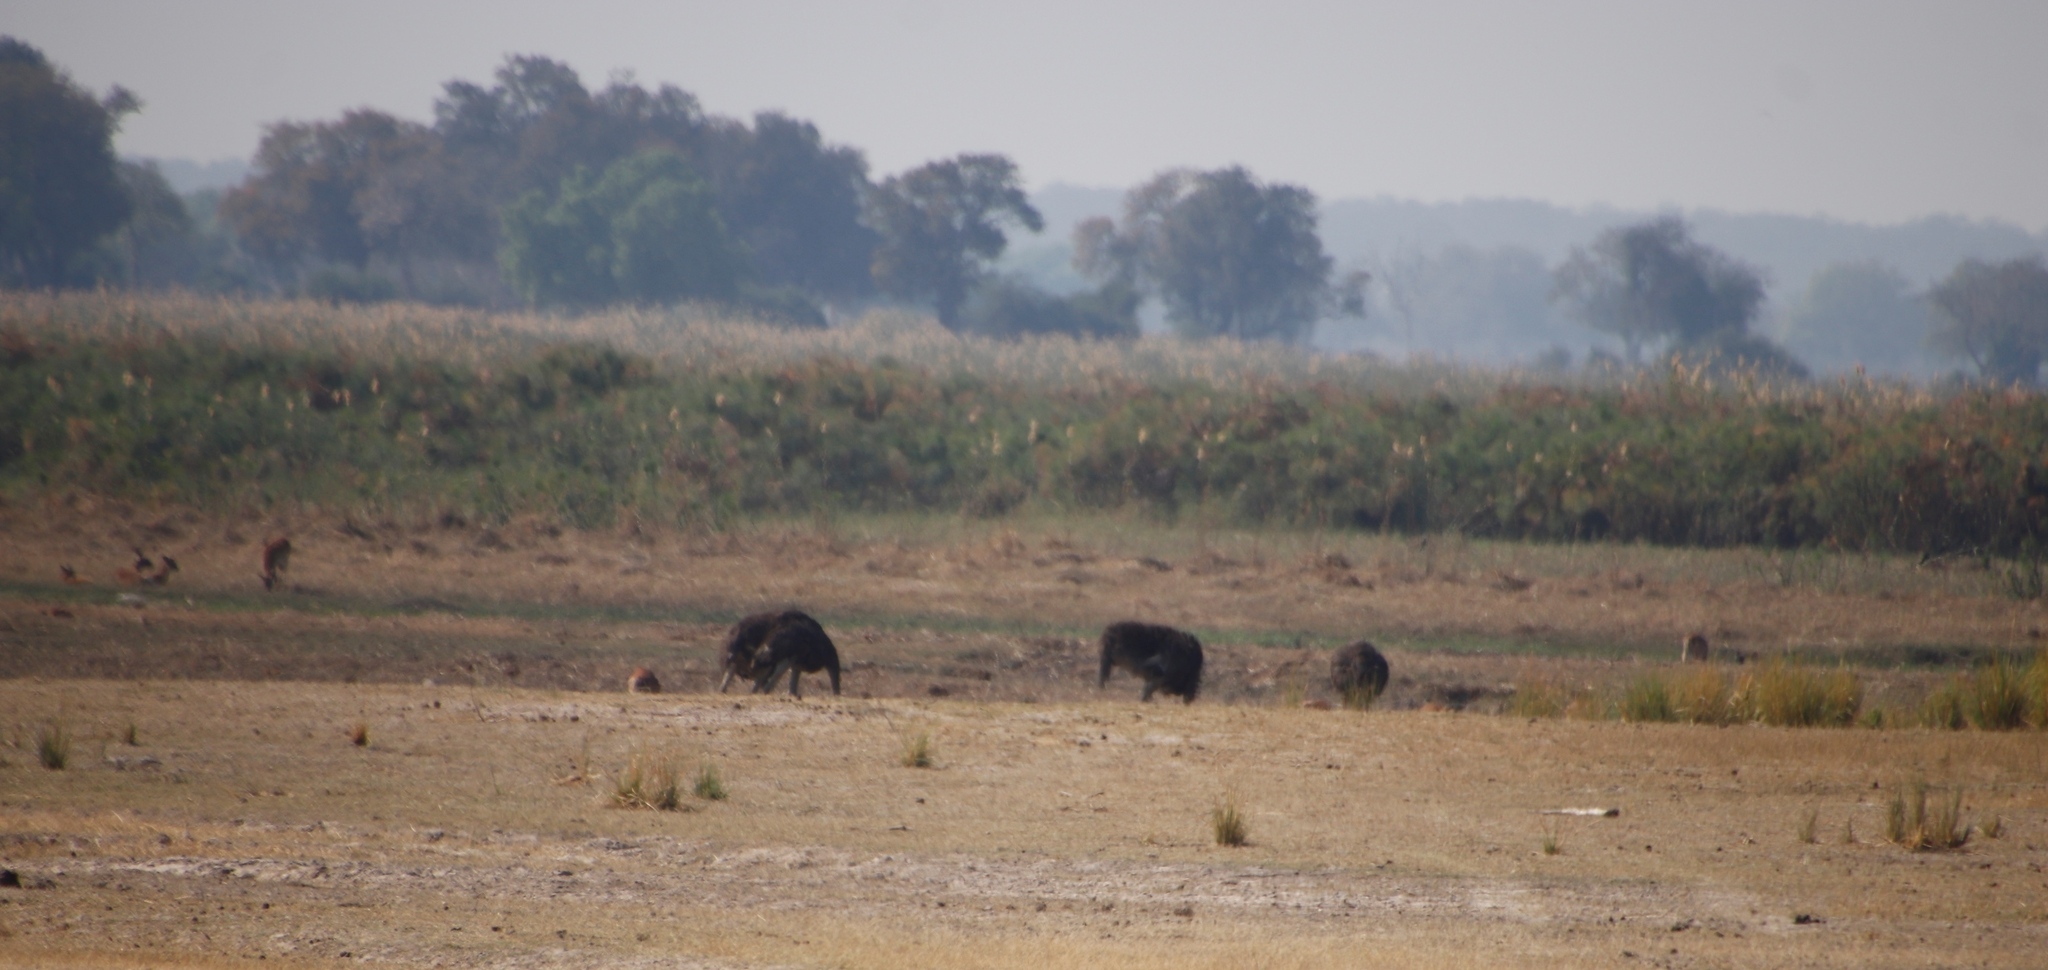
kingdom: Animalia
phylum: Chordata
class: Aves
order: Struthioniformes
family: Struthionidae
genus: Struthio
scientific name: Struthio camelus
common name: Common ostrich
